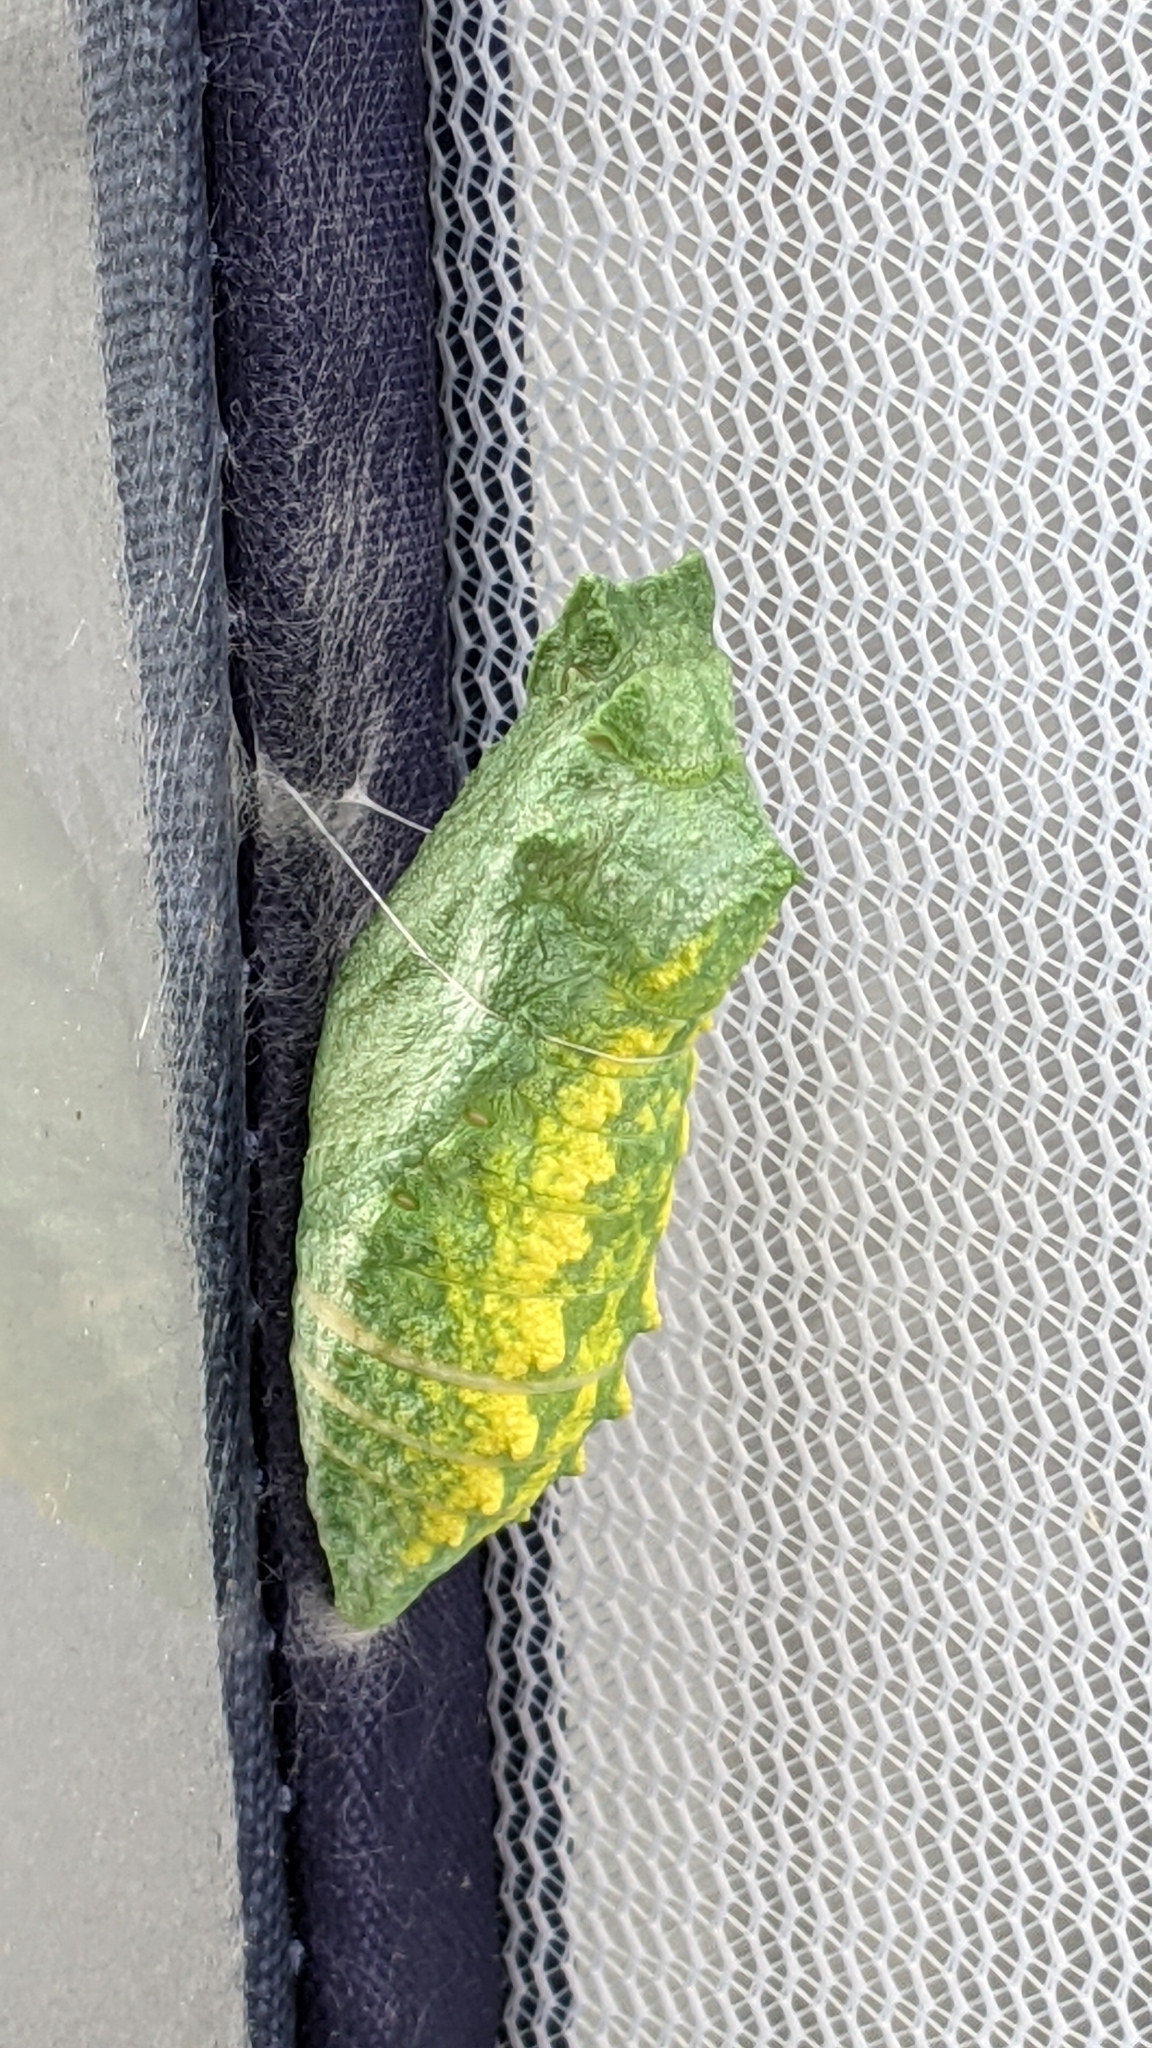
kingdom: Animalia
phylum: Arthropoda
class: Insecta
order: Lepidoptera
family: Papilionidae
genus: Papilio
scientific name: Papilio machaon
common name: Swallowtail
